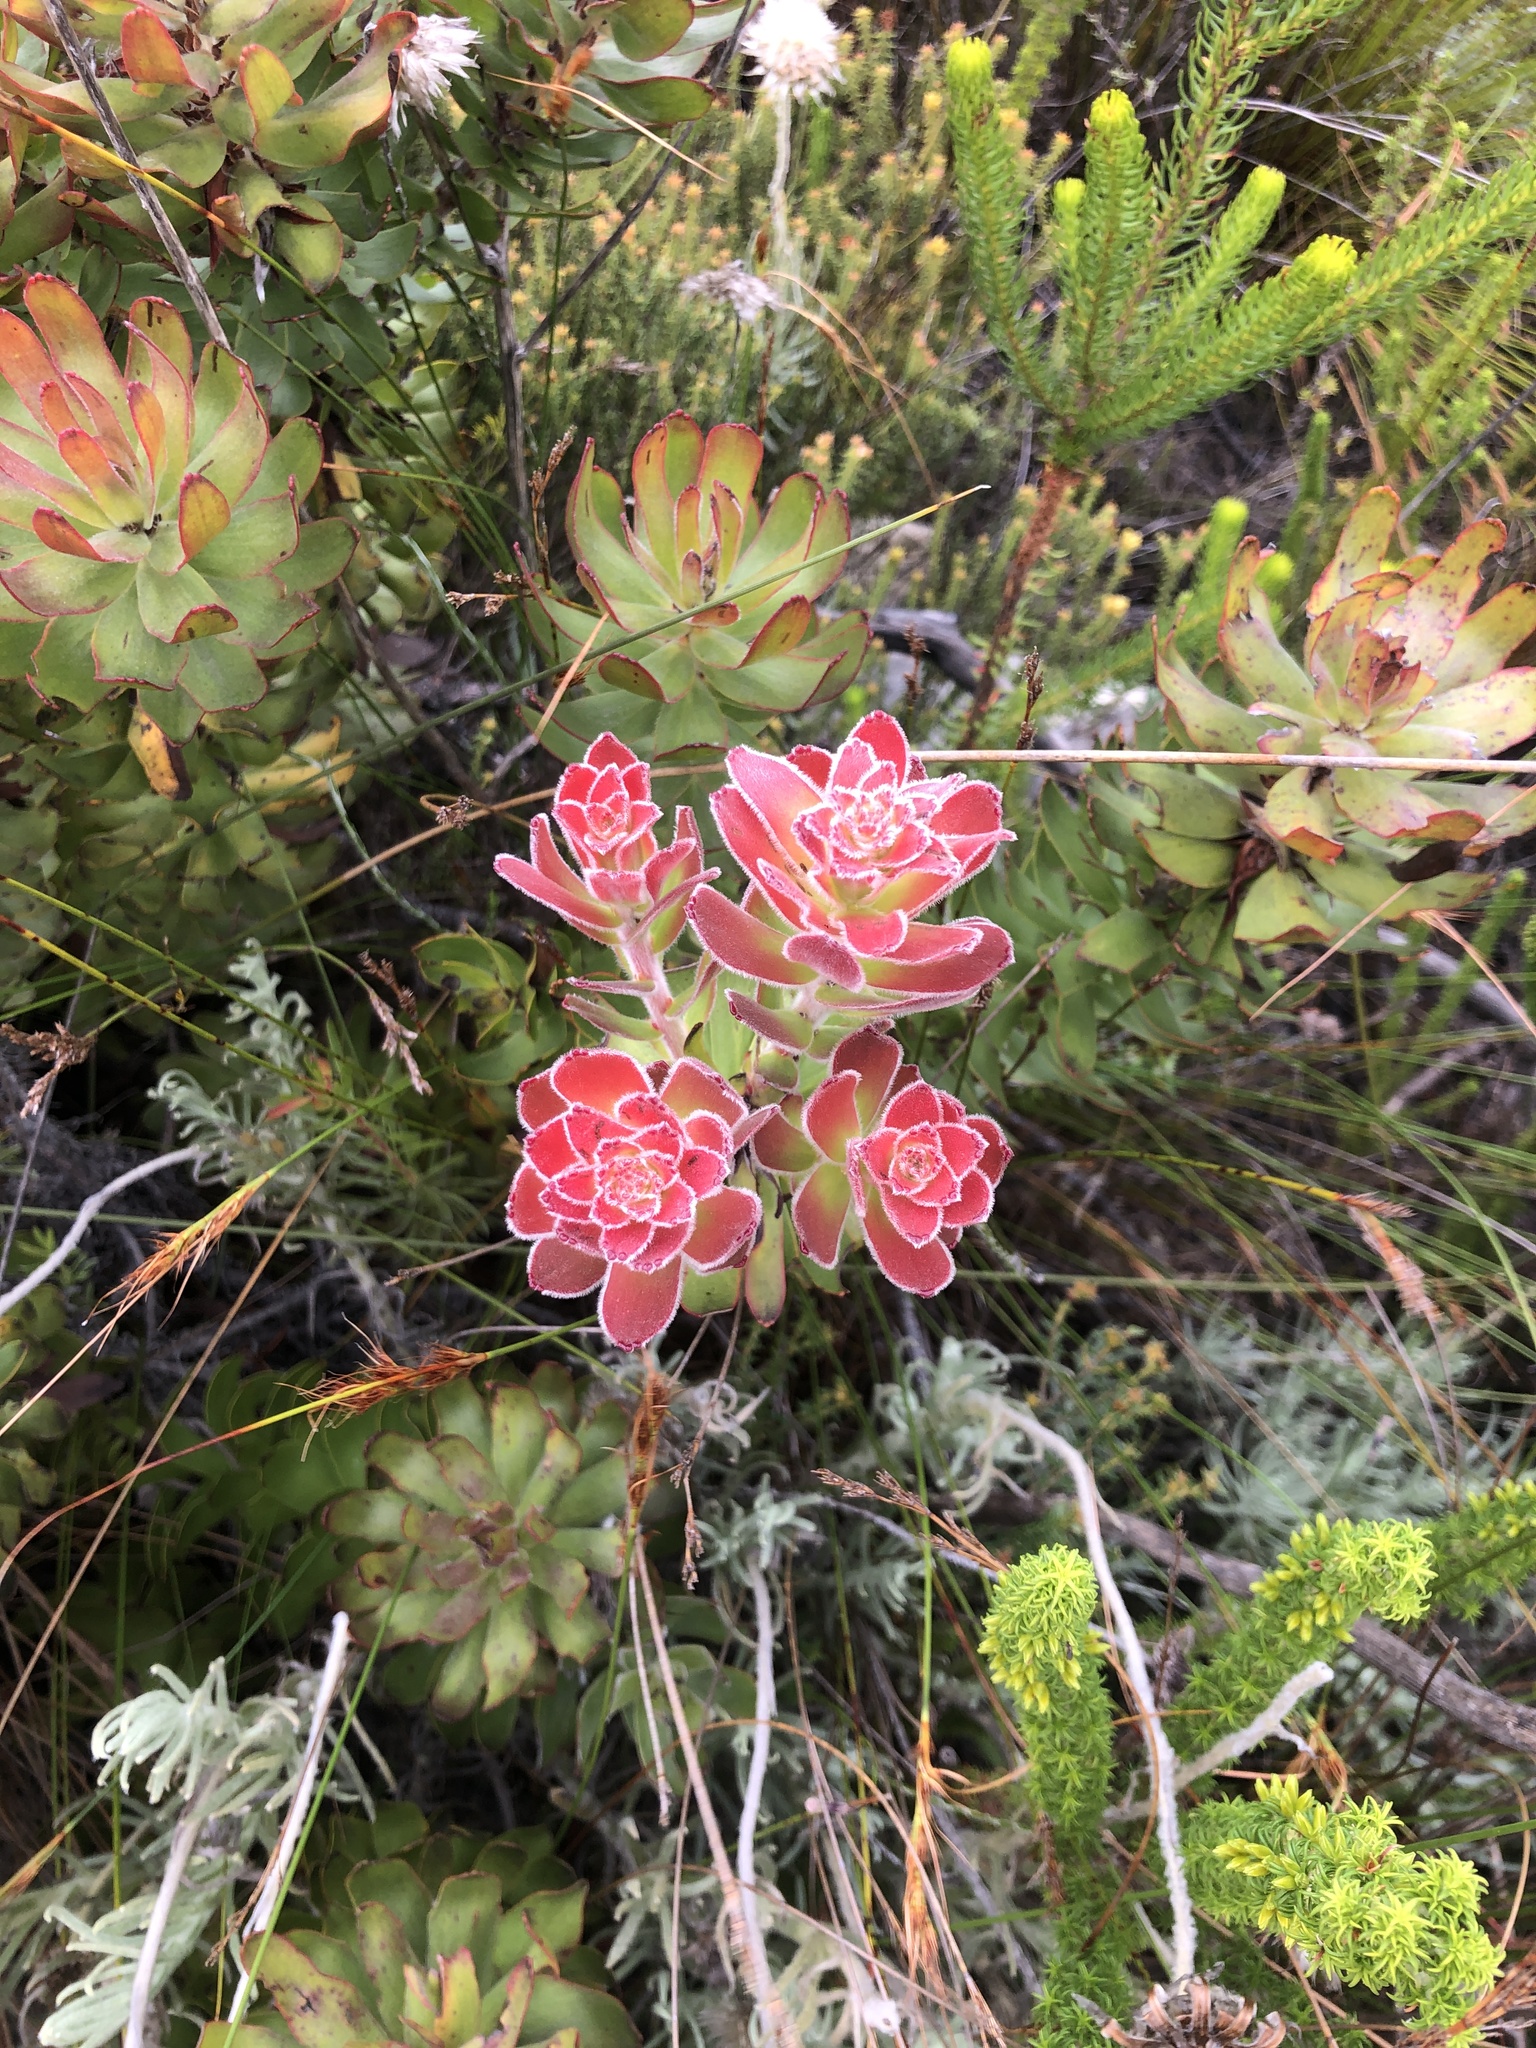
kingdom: Plantae
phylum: Tracheophyta
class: Magnoliopsida
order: Proteales
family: Proteaceae
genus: Mimetes
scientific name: Mimetes cucullatus
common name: Common pagoda
